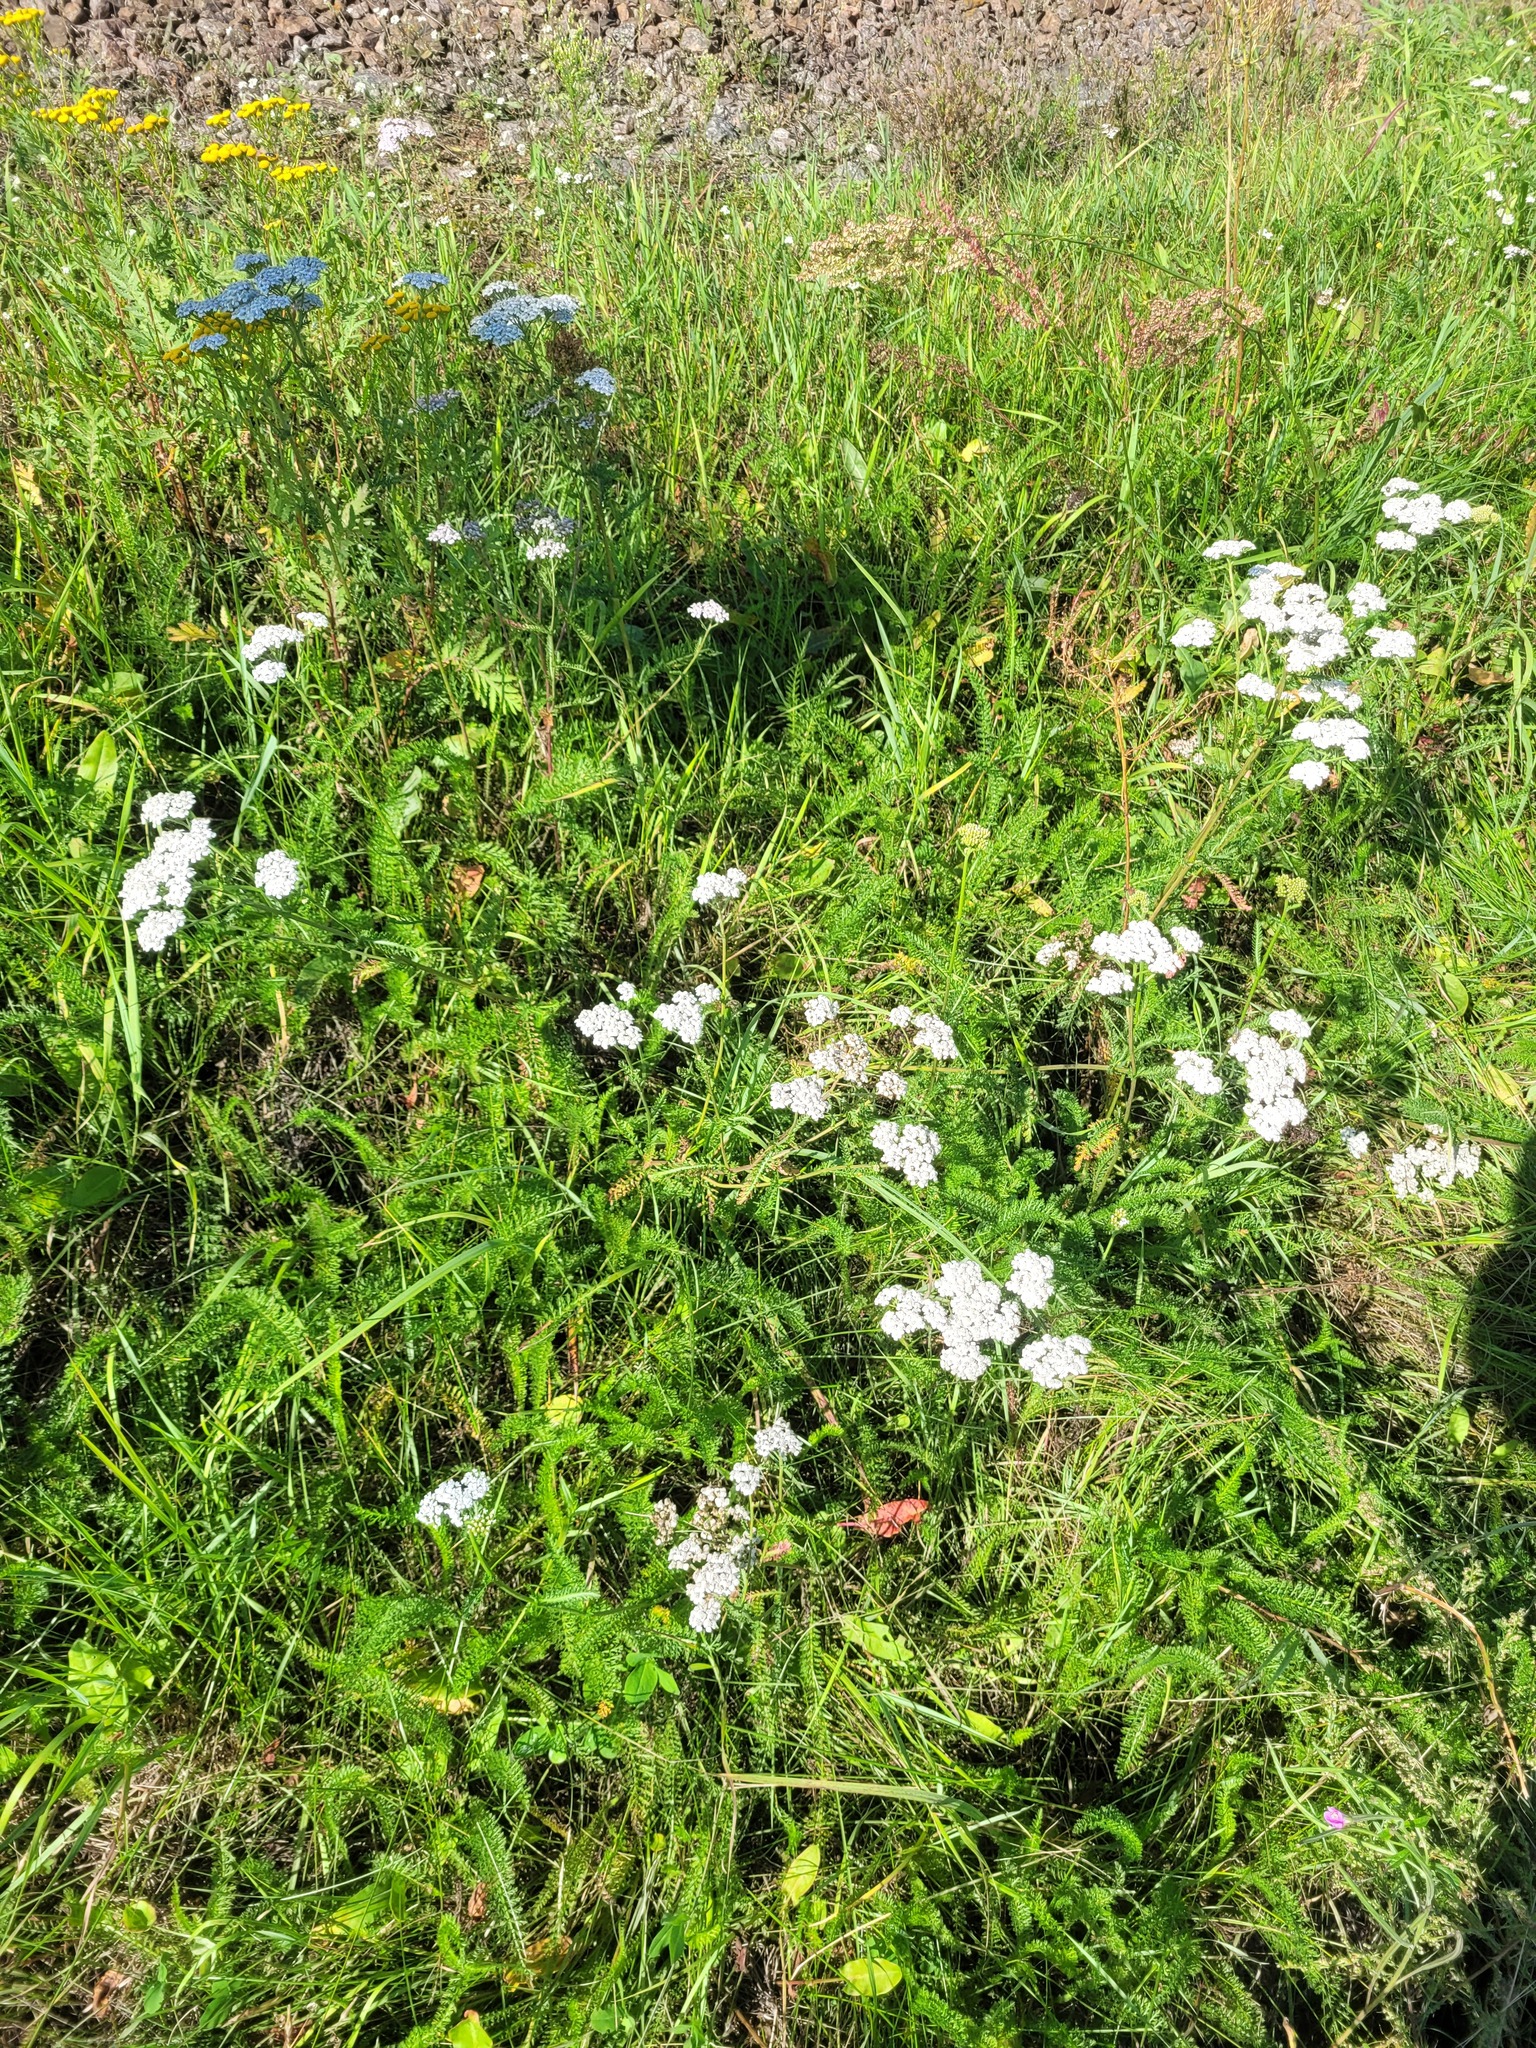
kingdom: Plantae
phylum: Tracheophyta
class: Magnoliopsida
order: Asterales
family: Asteraceae
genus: Achillea
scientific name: Achillea millefolium
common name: Yarrow
